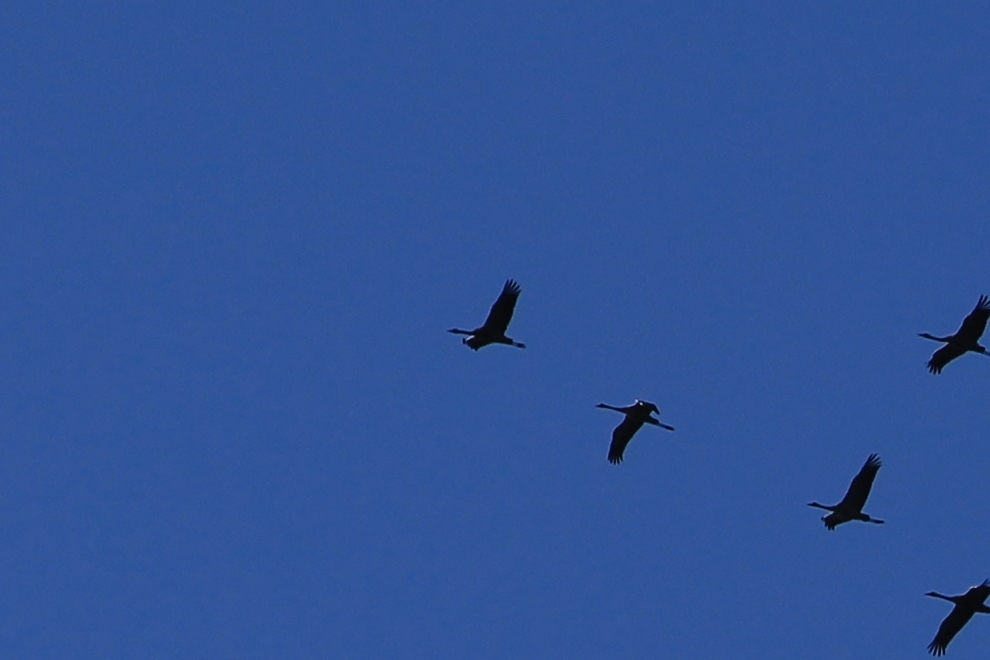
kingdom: Animalia
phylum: Chordata
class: Aves
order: Gruiformes
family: Gruidae
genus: Grus
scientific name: Grus grus
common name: Common crane
